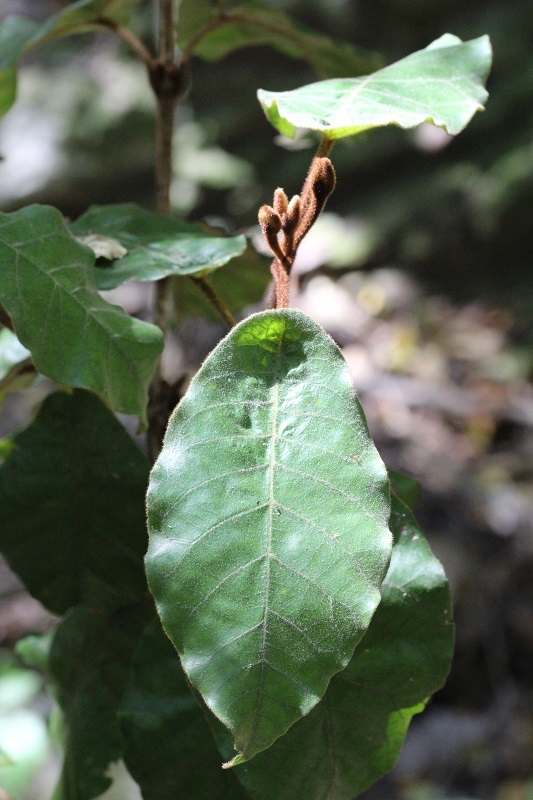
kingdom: Plantae
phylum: Tracheophyta
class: Magnoliopsida
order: Saxifragales
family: Hamamelidaceae
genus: Trichocladus
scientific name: Trichocladus crinitus
